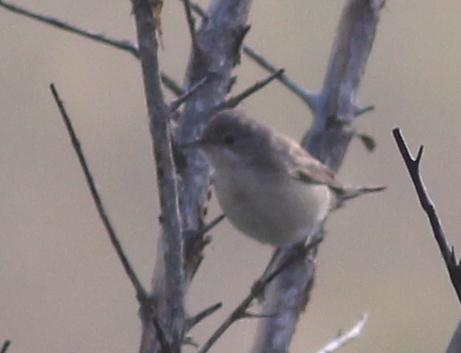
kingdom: Animalia
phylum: Chordata
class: Aves
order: Passeriformes
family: Sylviidae
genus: Curruca
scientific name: Curruca cantillans
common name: Subalpine warbler
